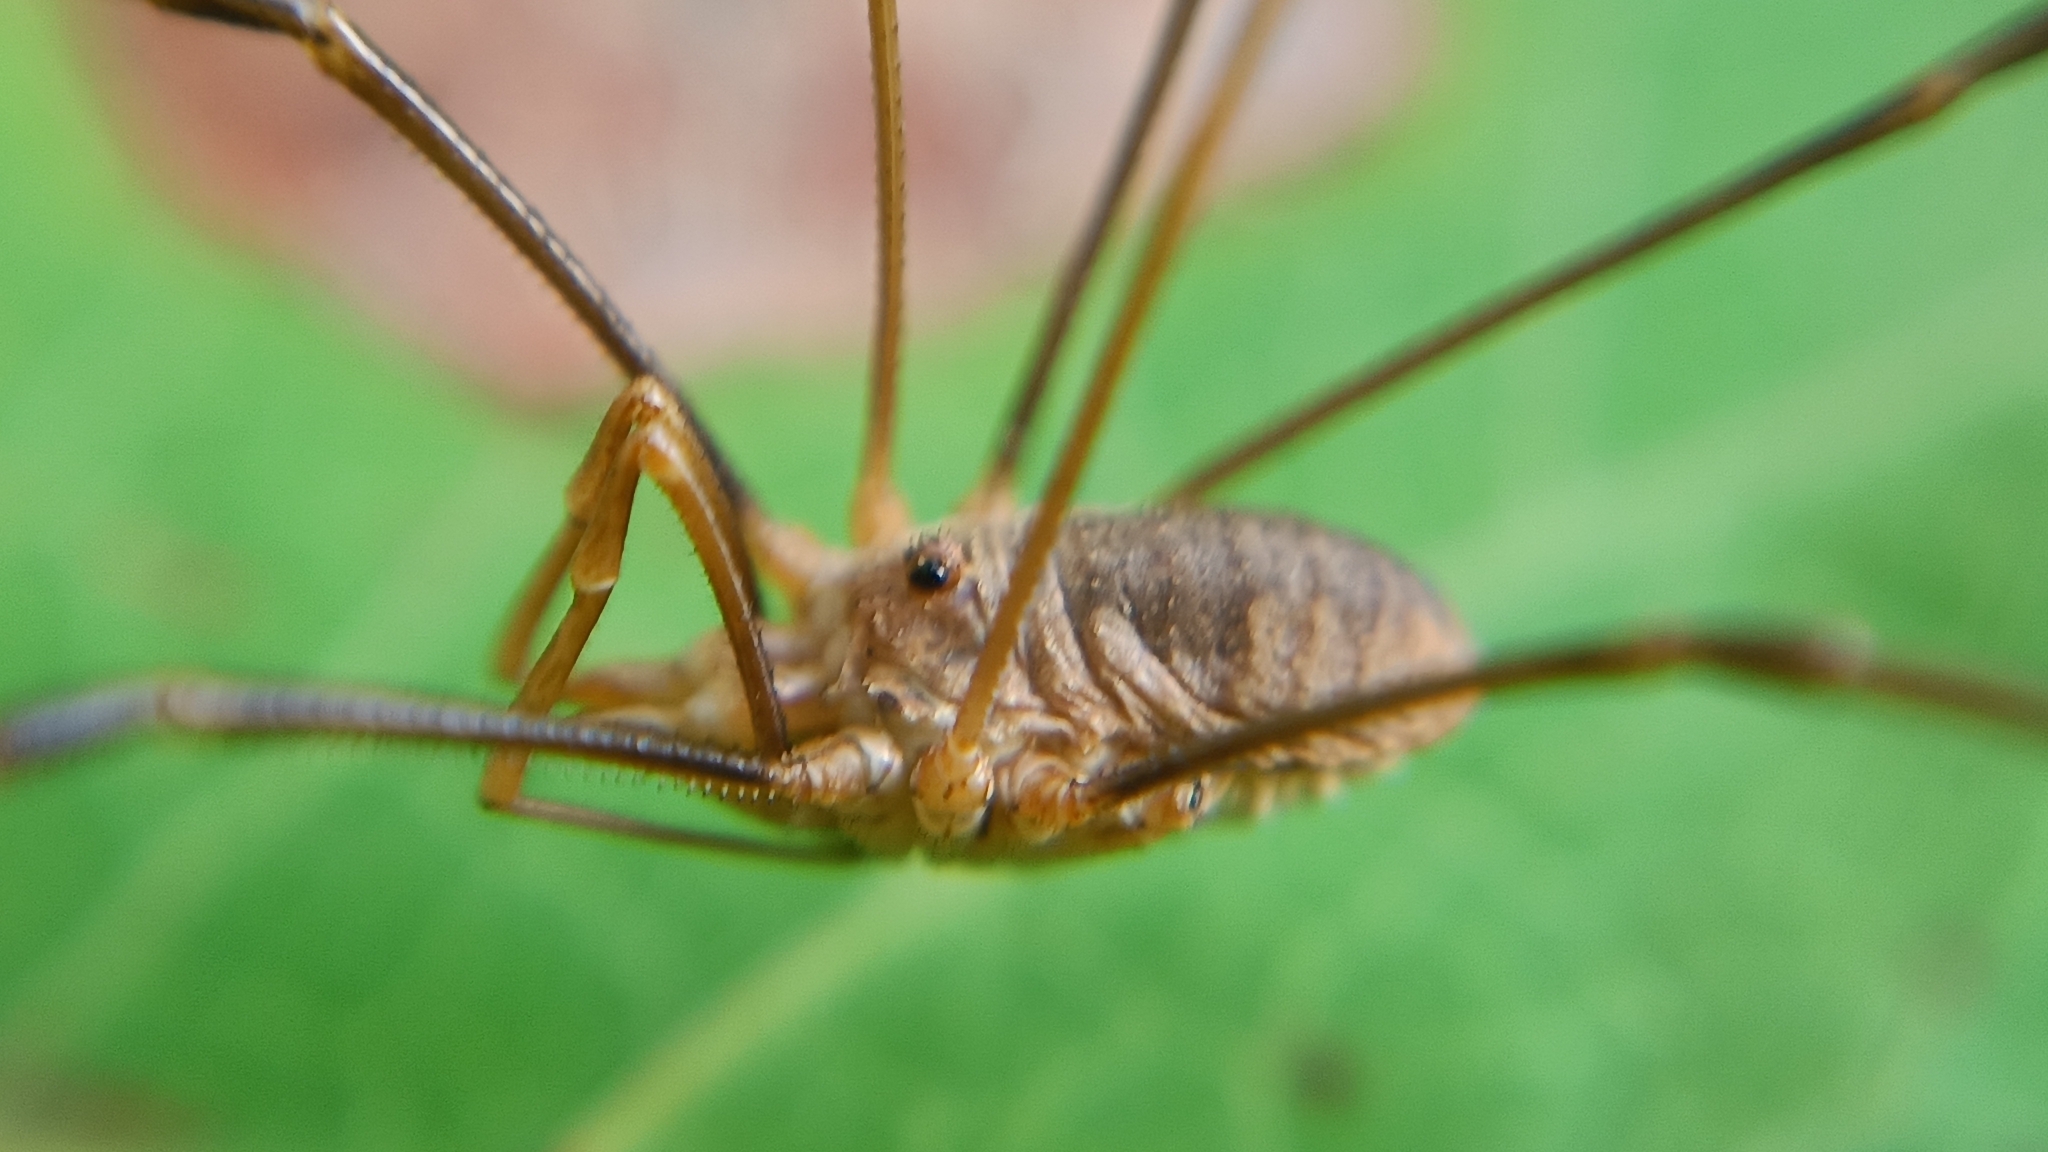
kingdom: Animalia
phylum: Arthropoda
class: Arachnida
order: Opiliones
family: Phalangiidae
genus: Phalangium
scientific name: Phalangium opilio
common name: Daddy longleg
